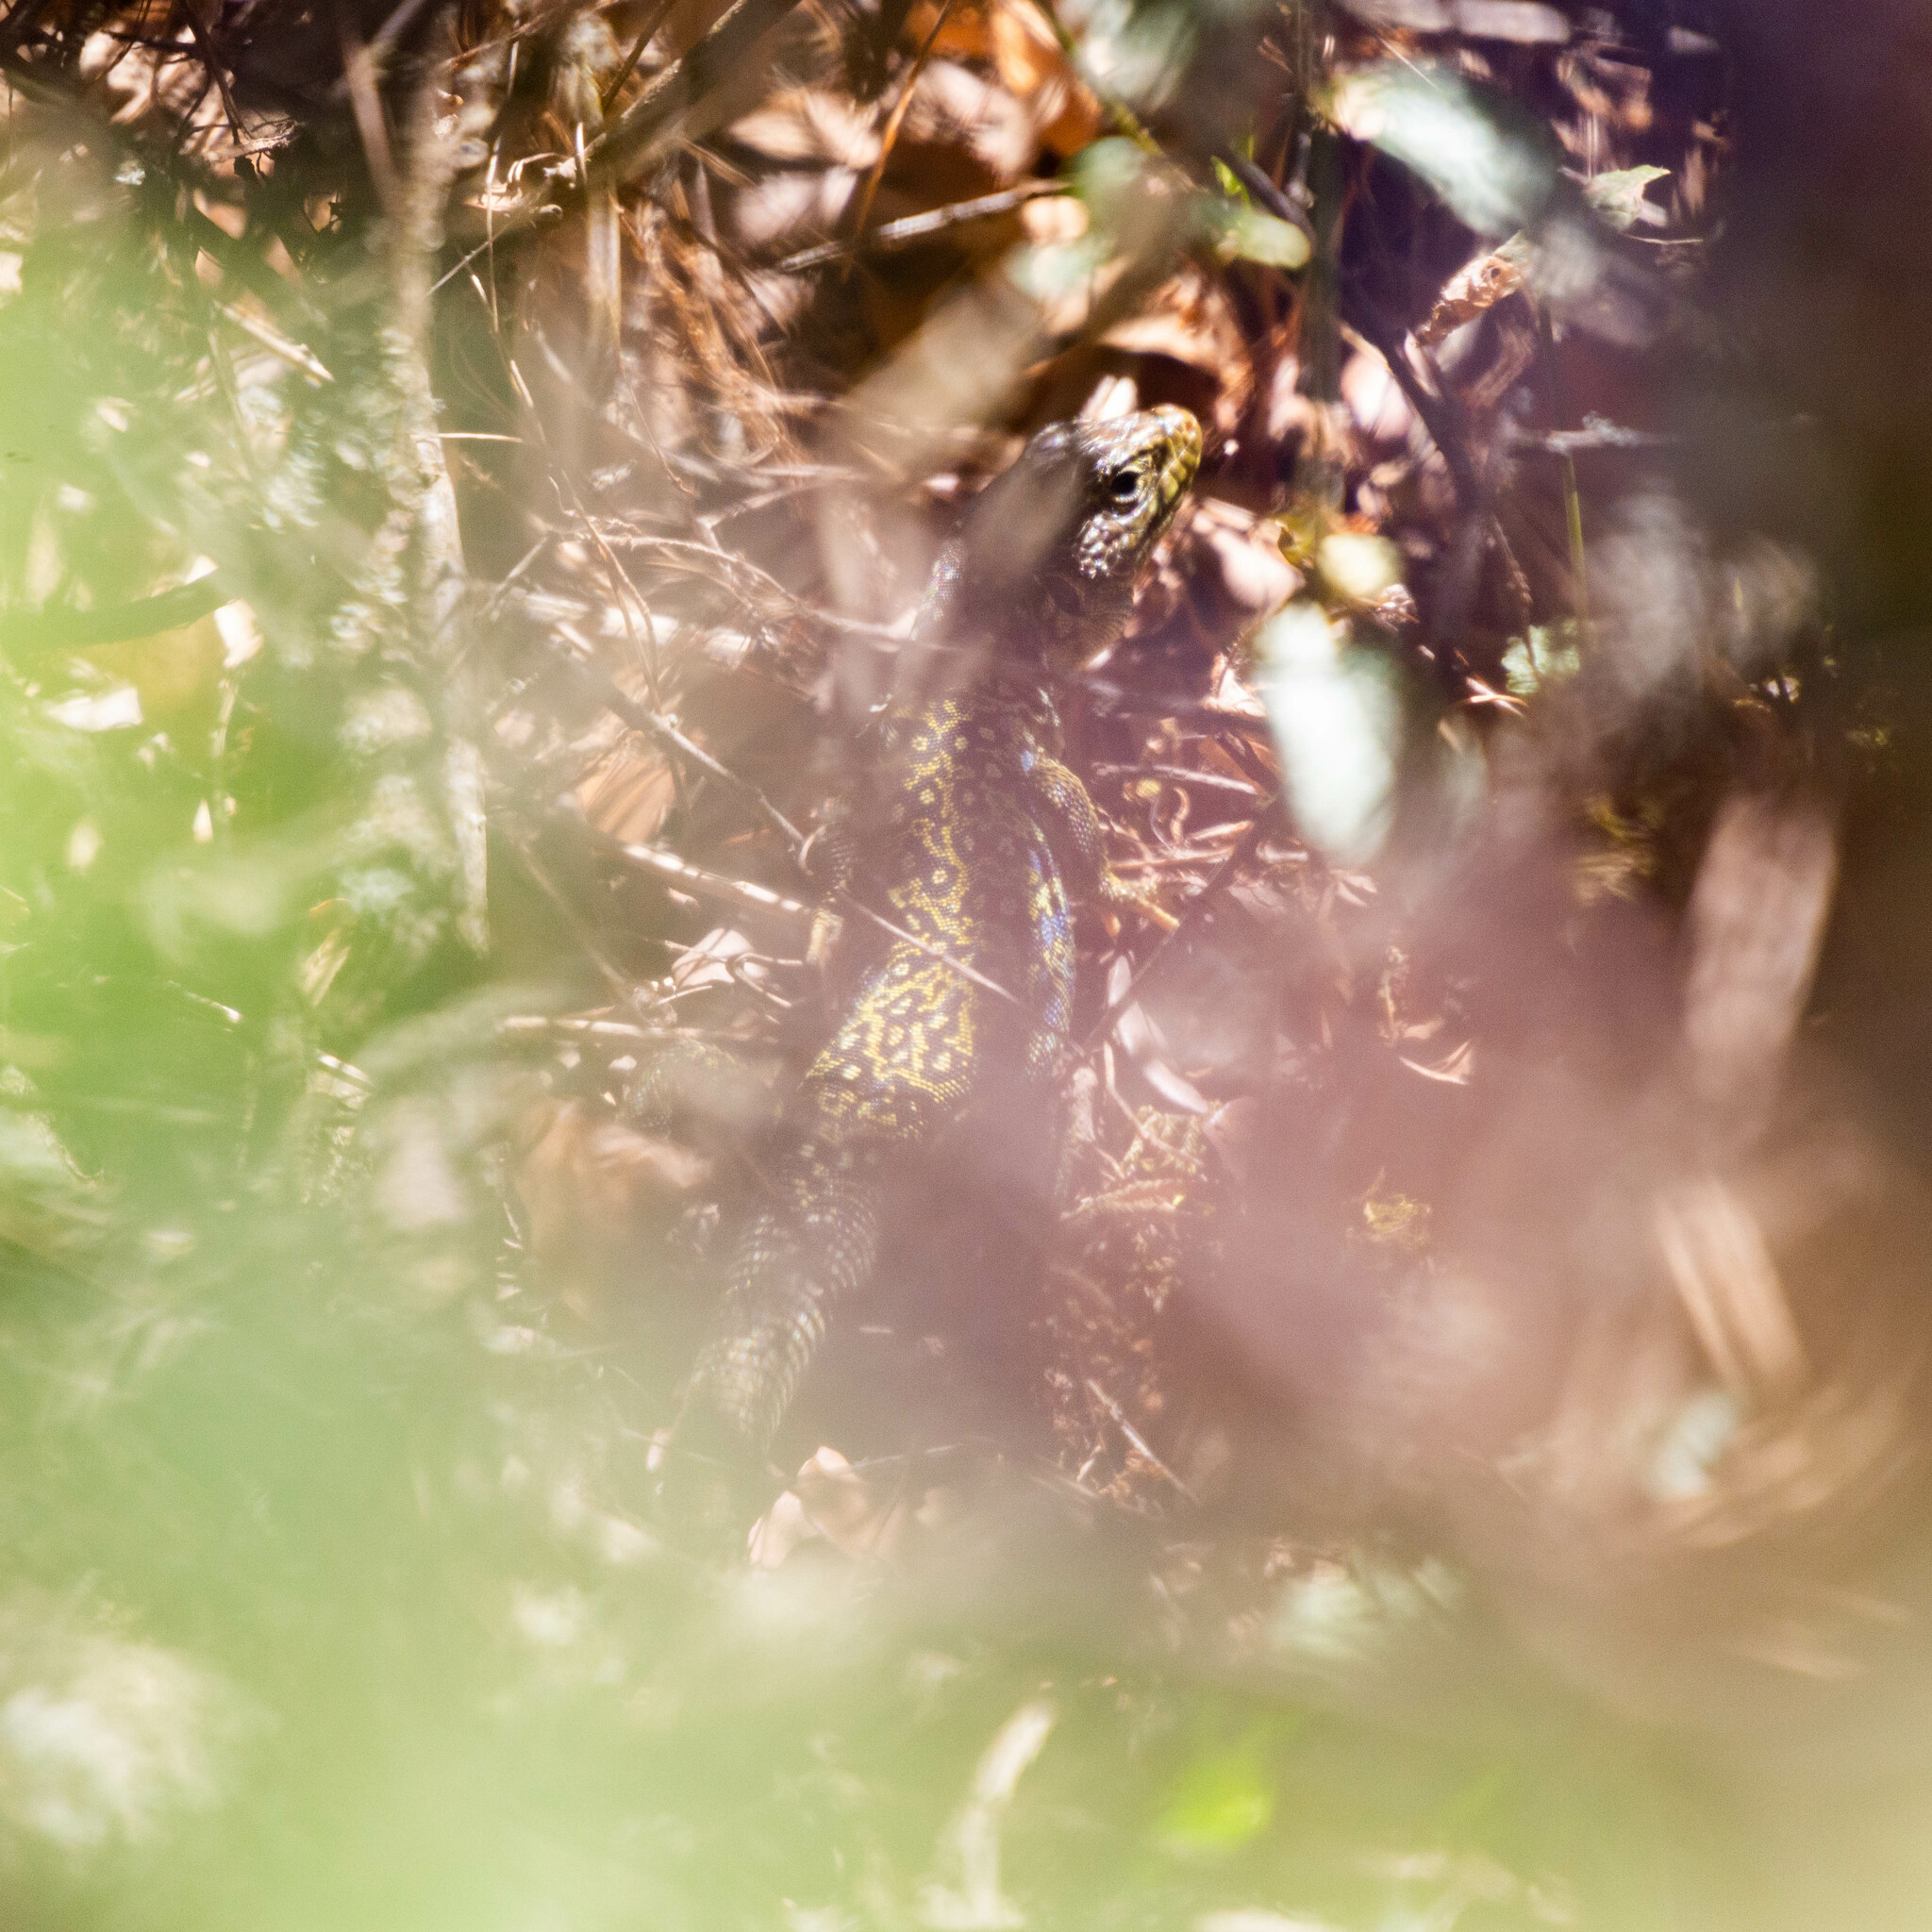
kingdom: Animalia
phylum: Chordata
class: Squamata
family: Lacertidae
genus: Timon
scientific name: Timon lepidus
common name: Ocellated lizard
